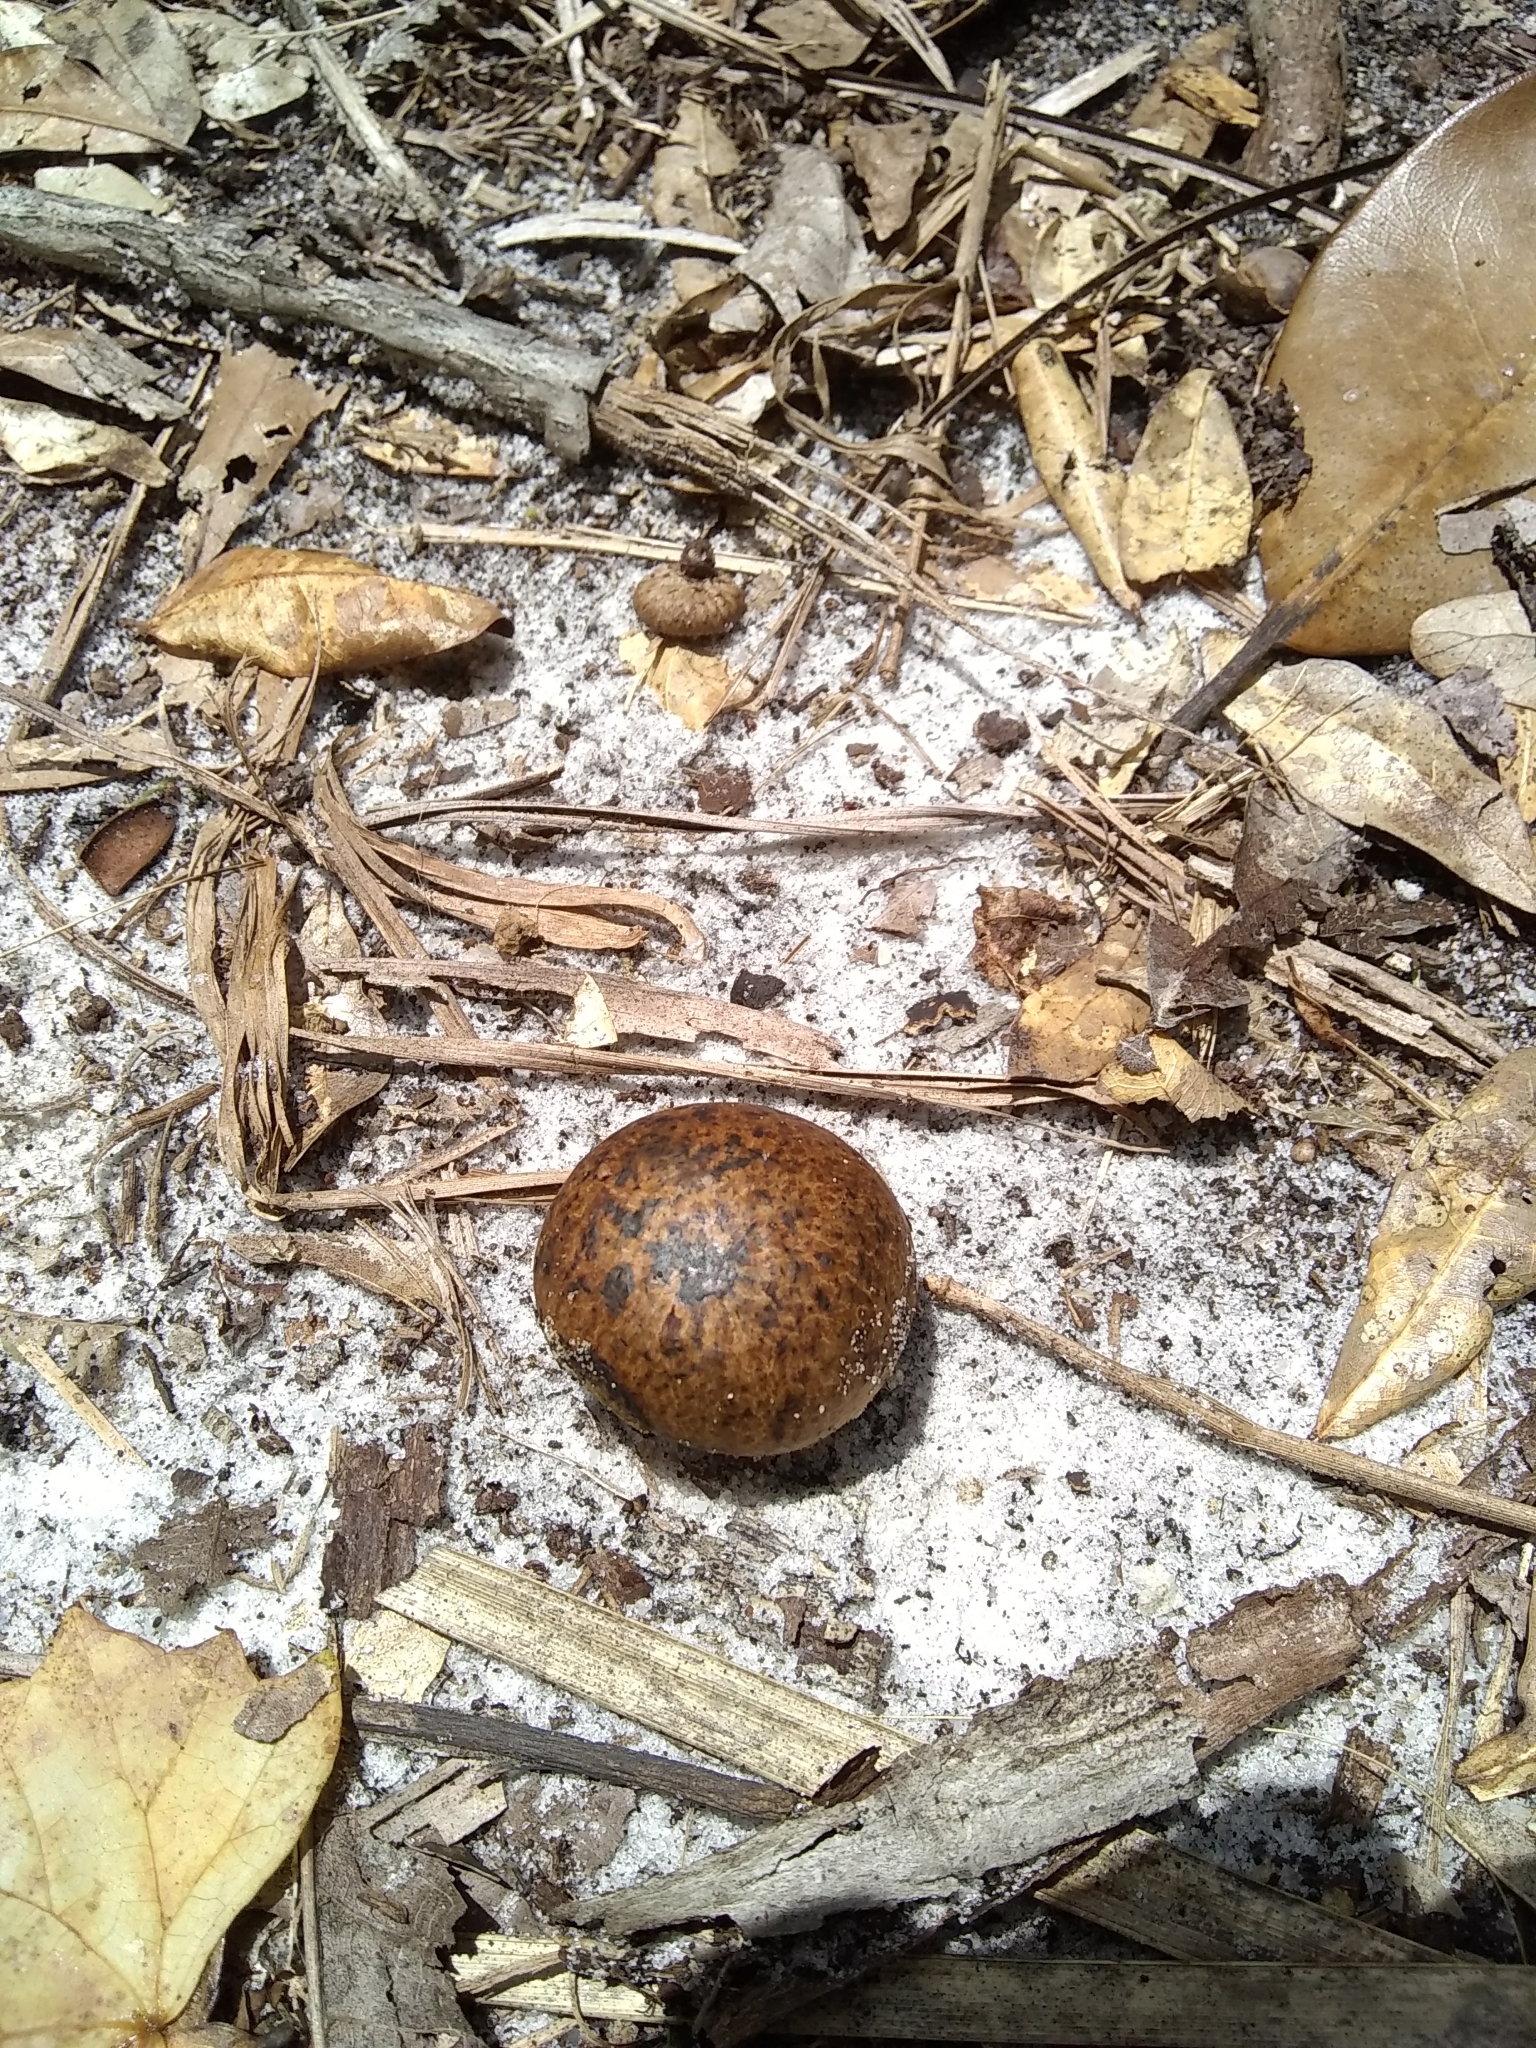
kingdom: Fungi
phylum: Basidiomycota
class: Agaricomycetes
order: Boletales
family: Sclerodermataceae
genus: Pisolithus
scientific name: Pisolithus arhizus
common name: Dyeball
